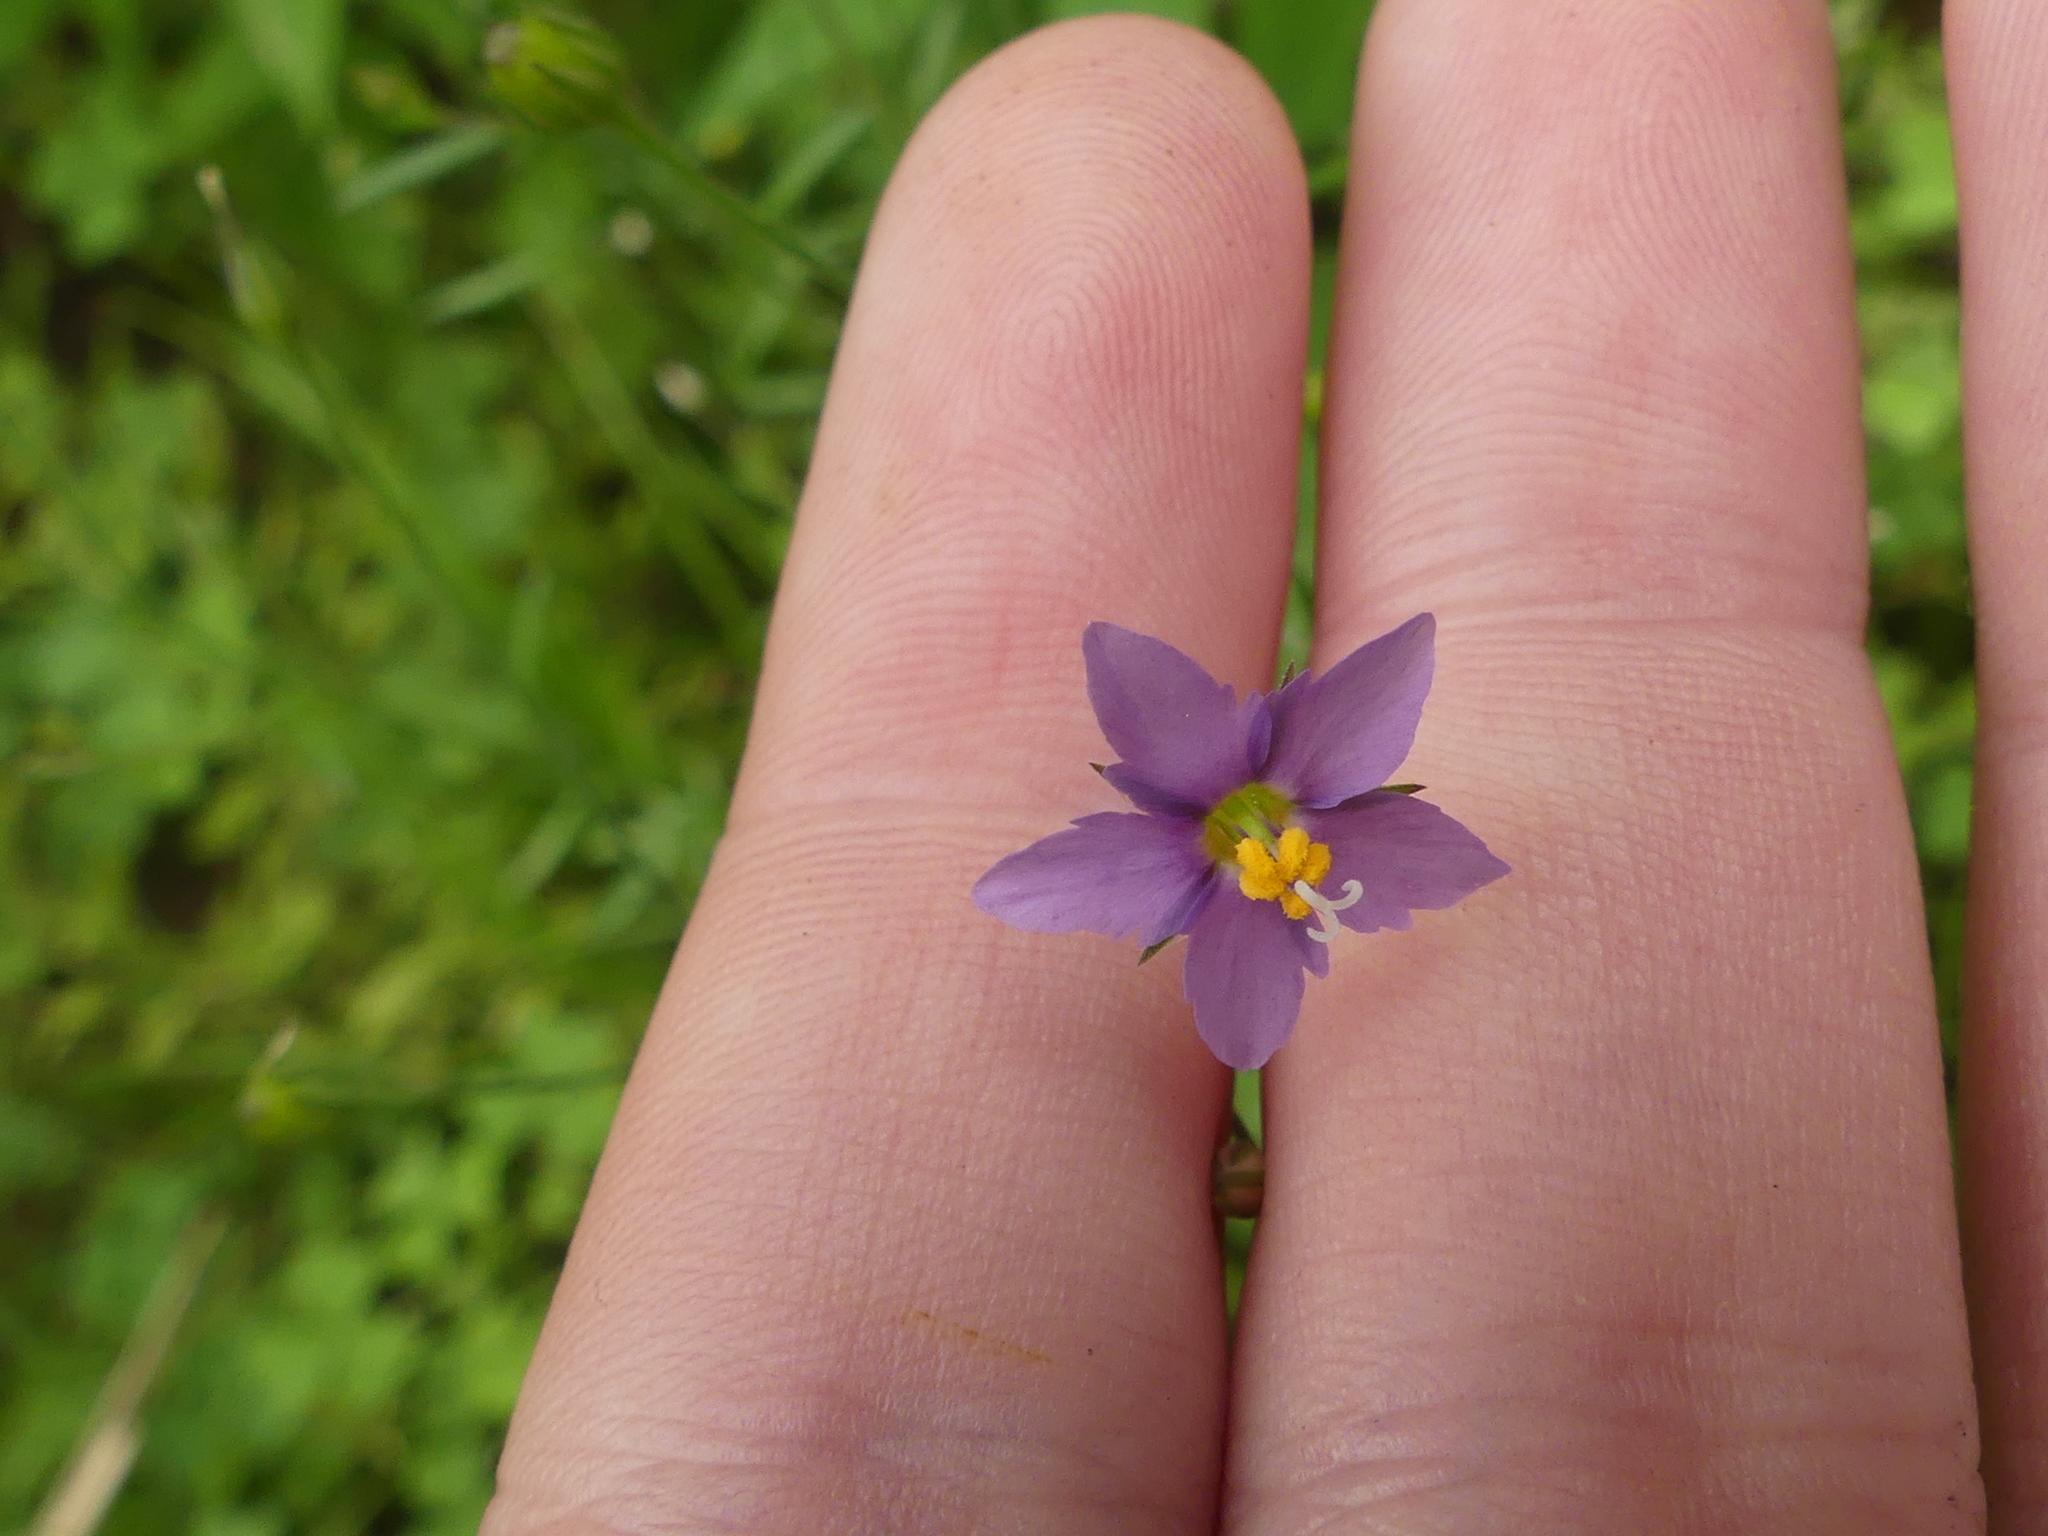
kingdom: Plantae
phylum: Tracheophyta
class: Magnoliopsida
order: Ericales
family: Polemoniaceae
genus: Giliastrum
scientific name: Giliastrum incisum
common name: Splitleaf gilia
